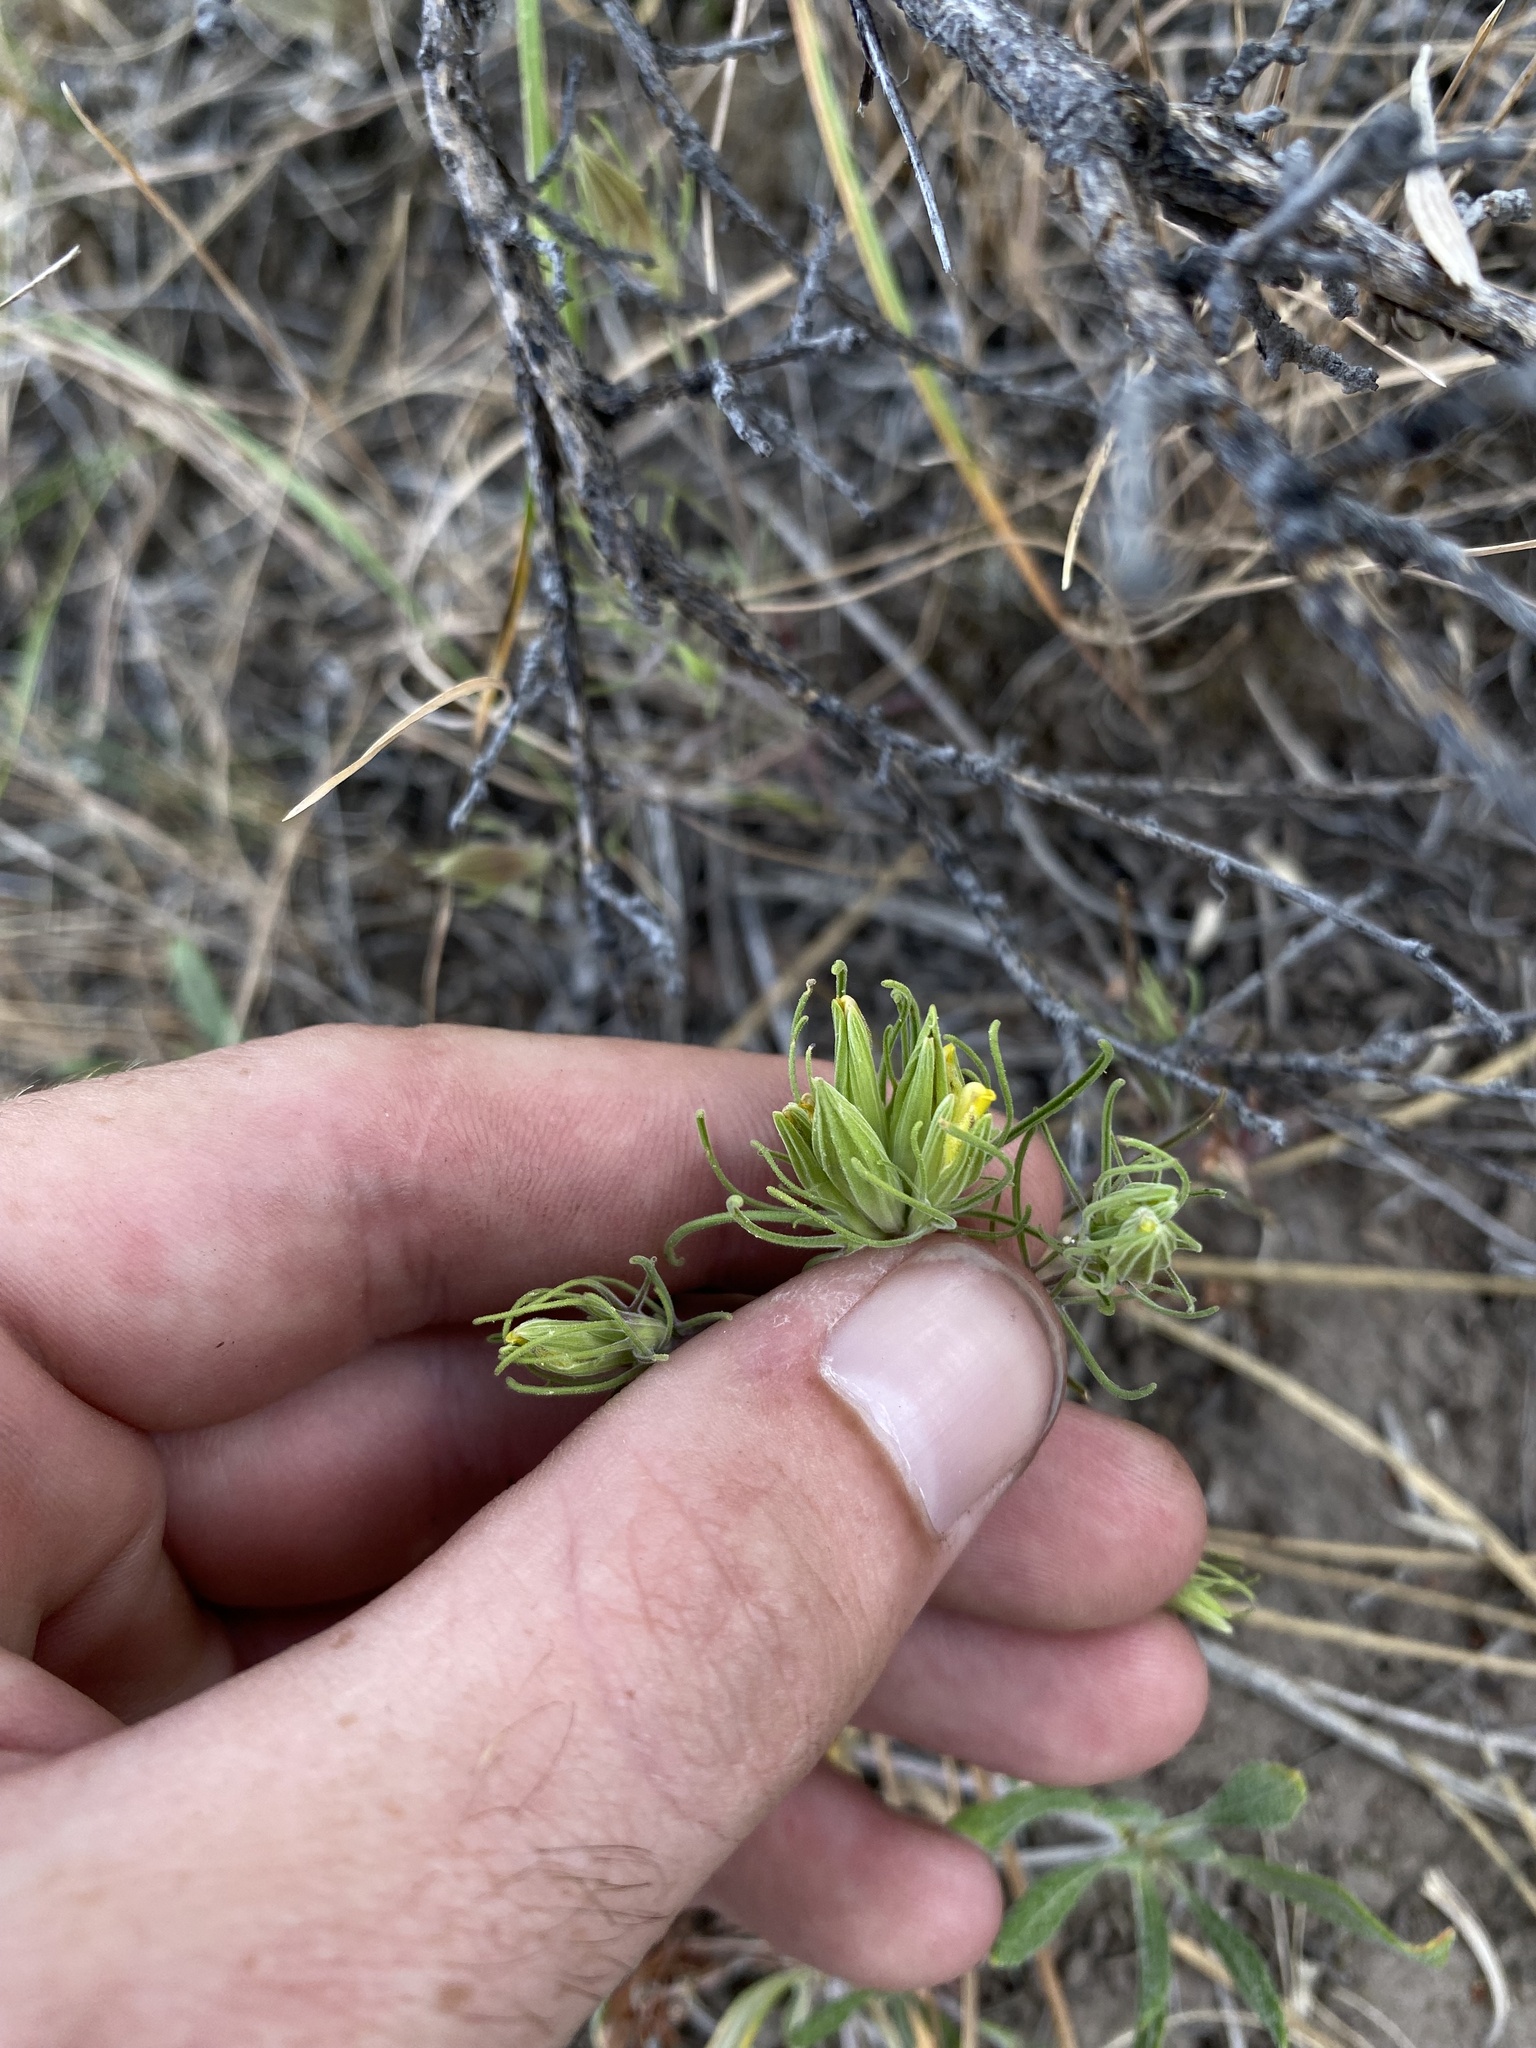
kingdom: Plantae
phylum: Tracheophyta
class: Magnoliopsida
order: Lamiales
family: Orobanchaceae
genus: Cordylanthus
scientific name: Cordylanthus ramosus
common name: Much-branched bird's-beak
